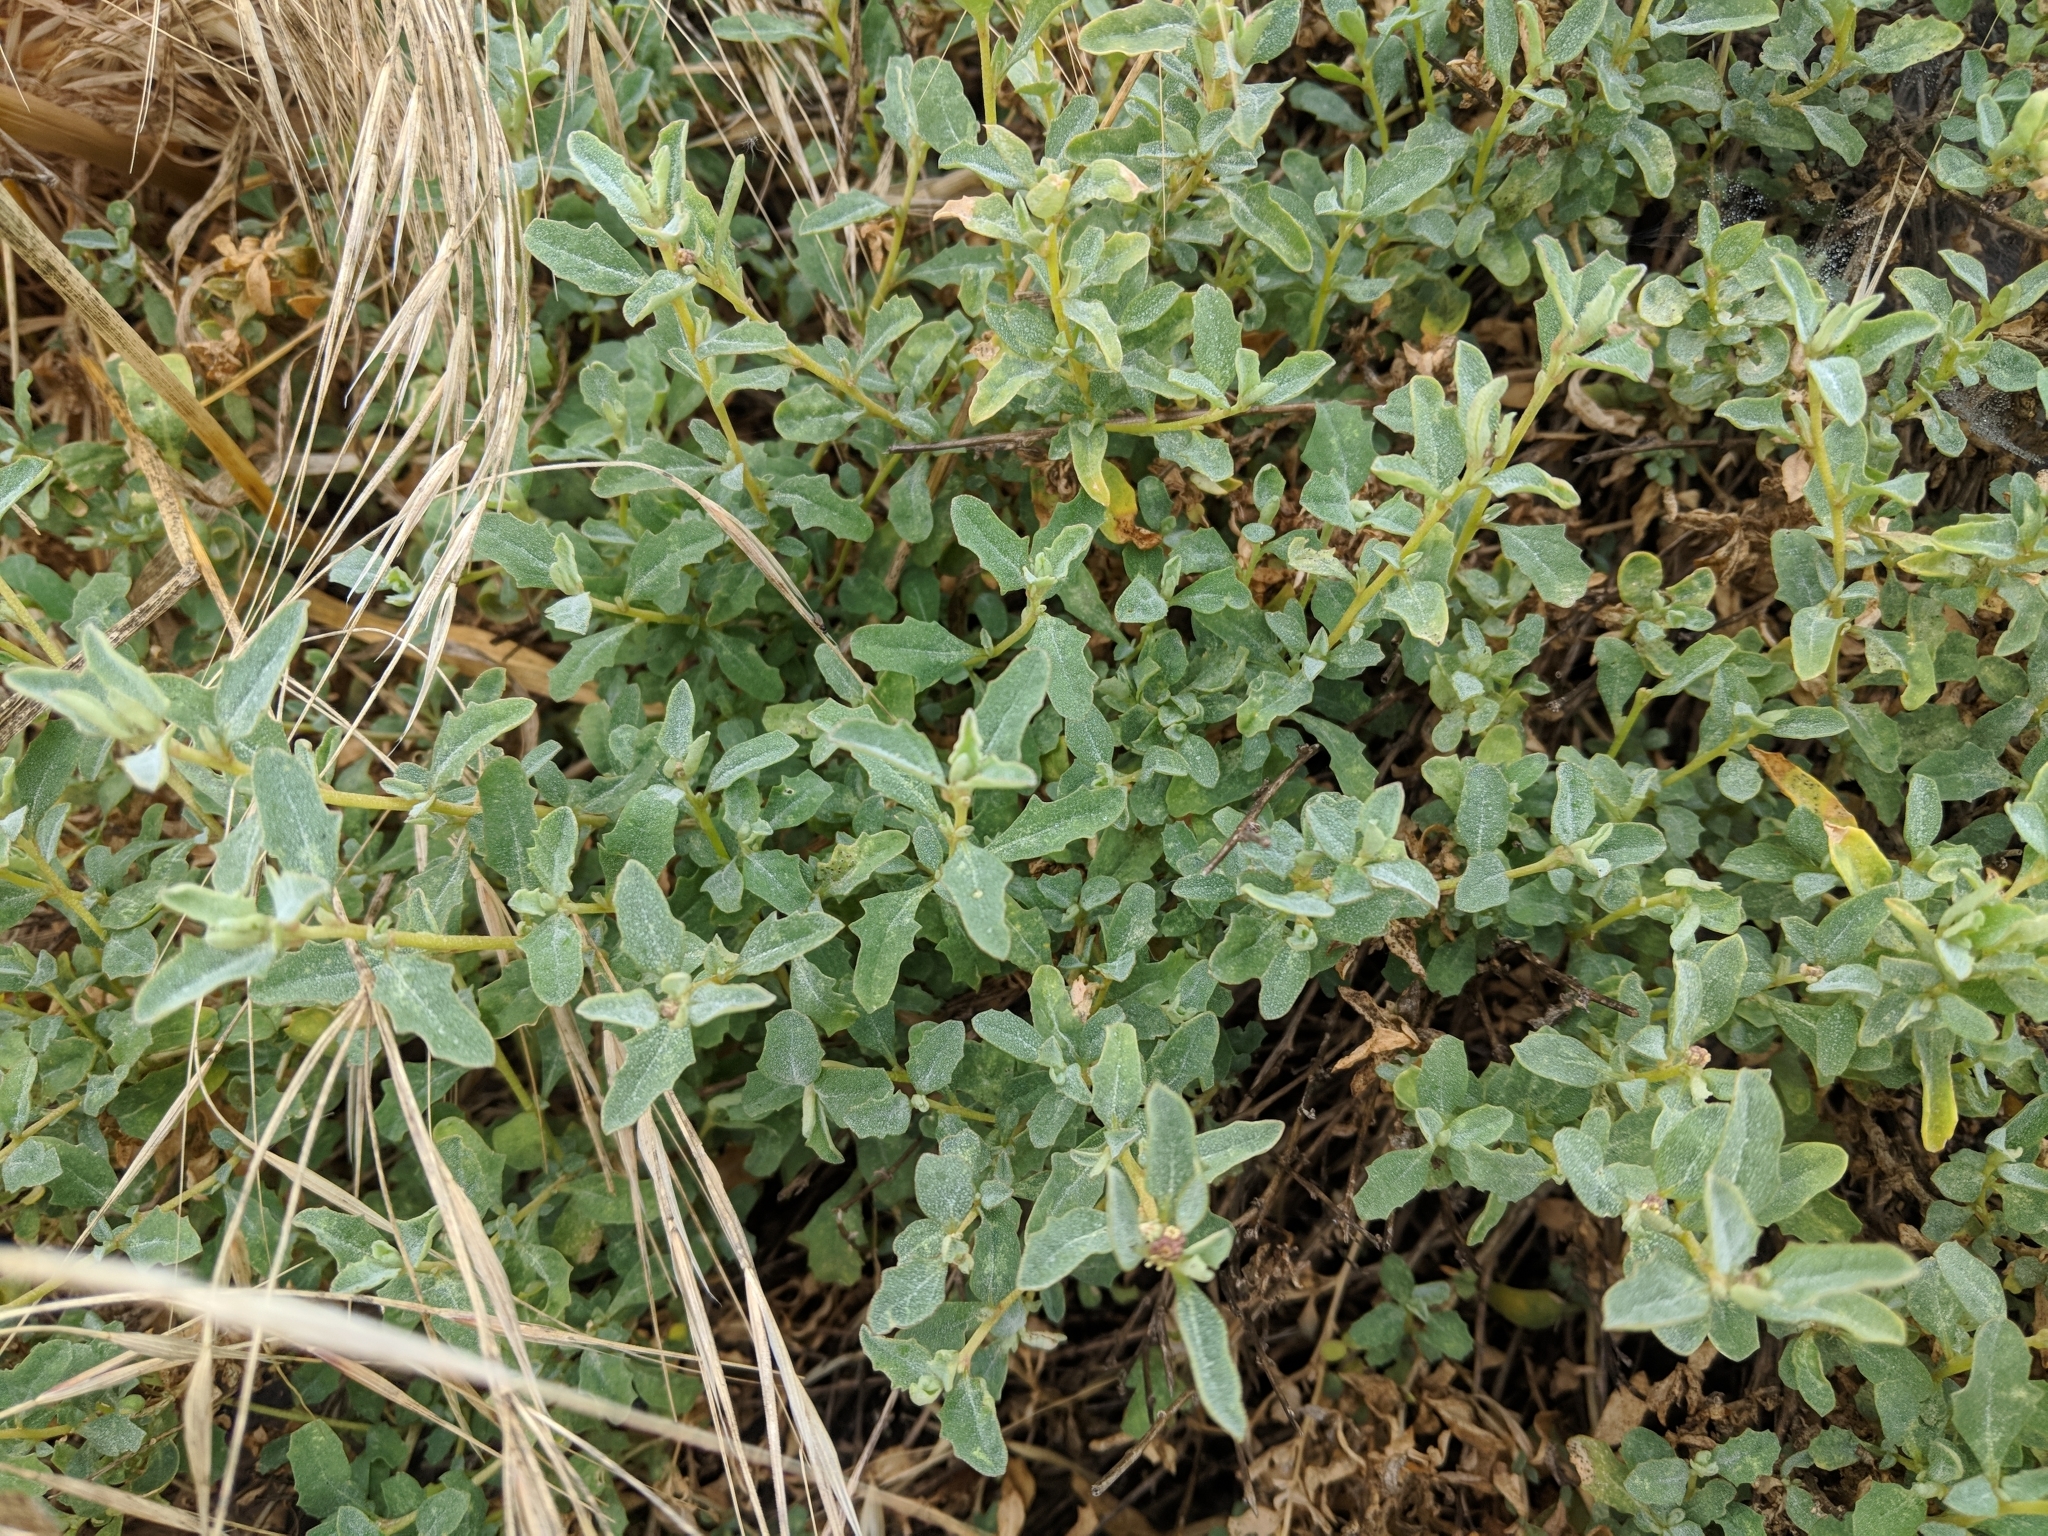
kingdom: Plantae
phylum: Tracheophyta
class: Magnoliopsida
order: Caryophyllales
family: Amaranthaceae
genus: Atriplex
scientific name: Atriplex semibaccata
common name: Australian saltbush
